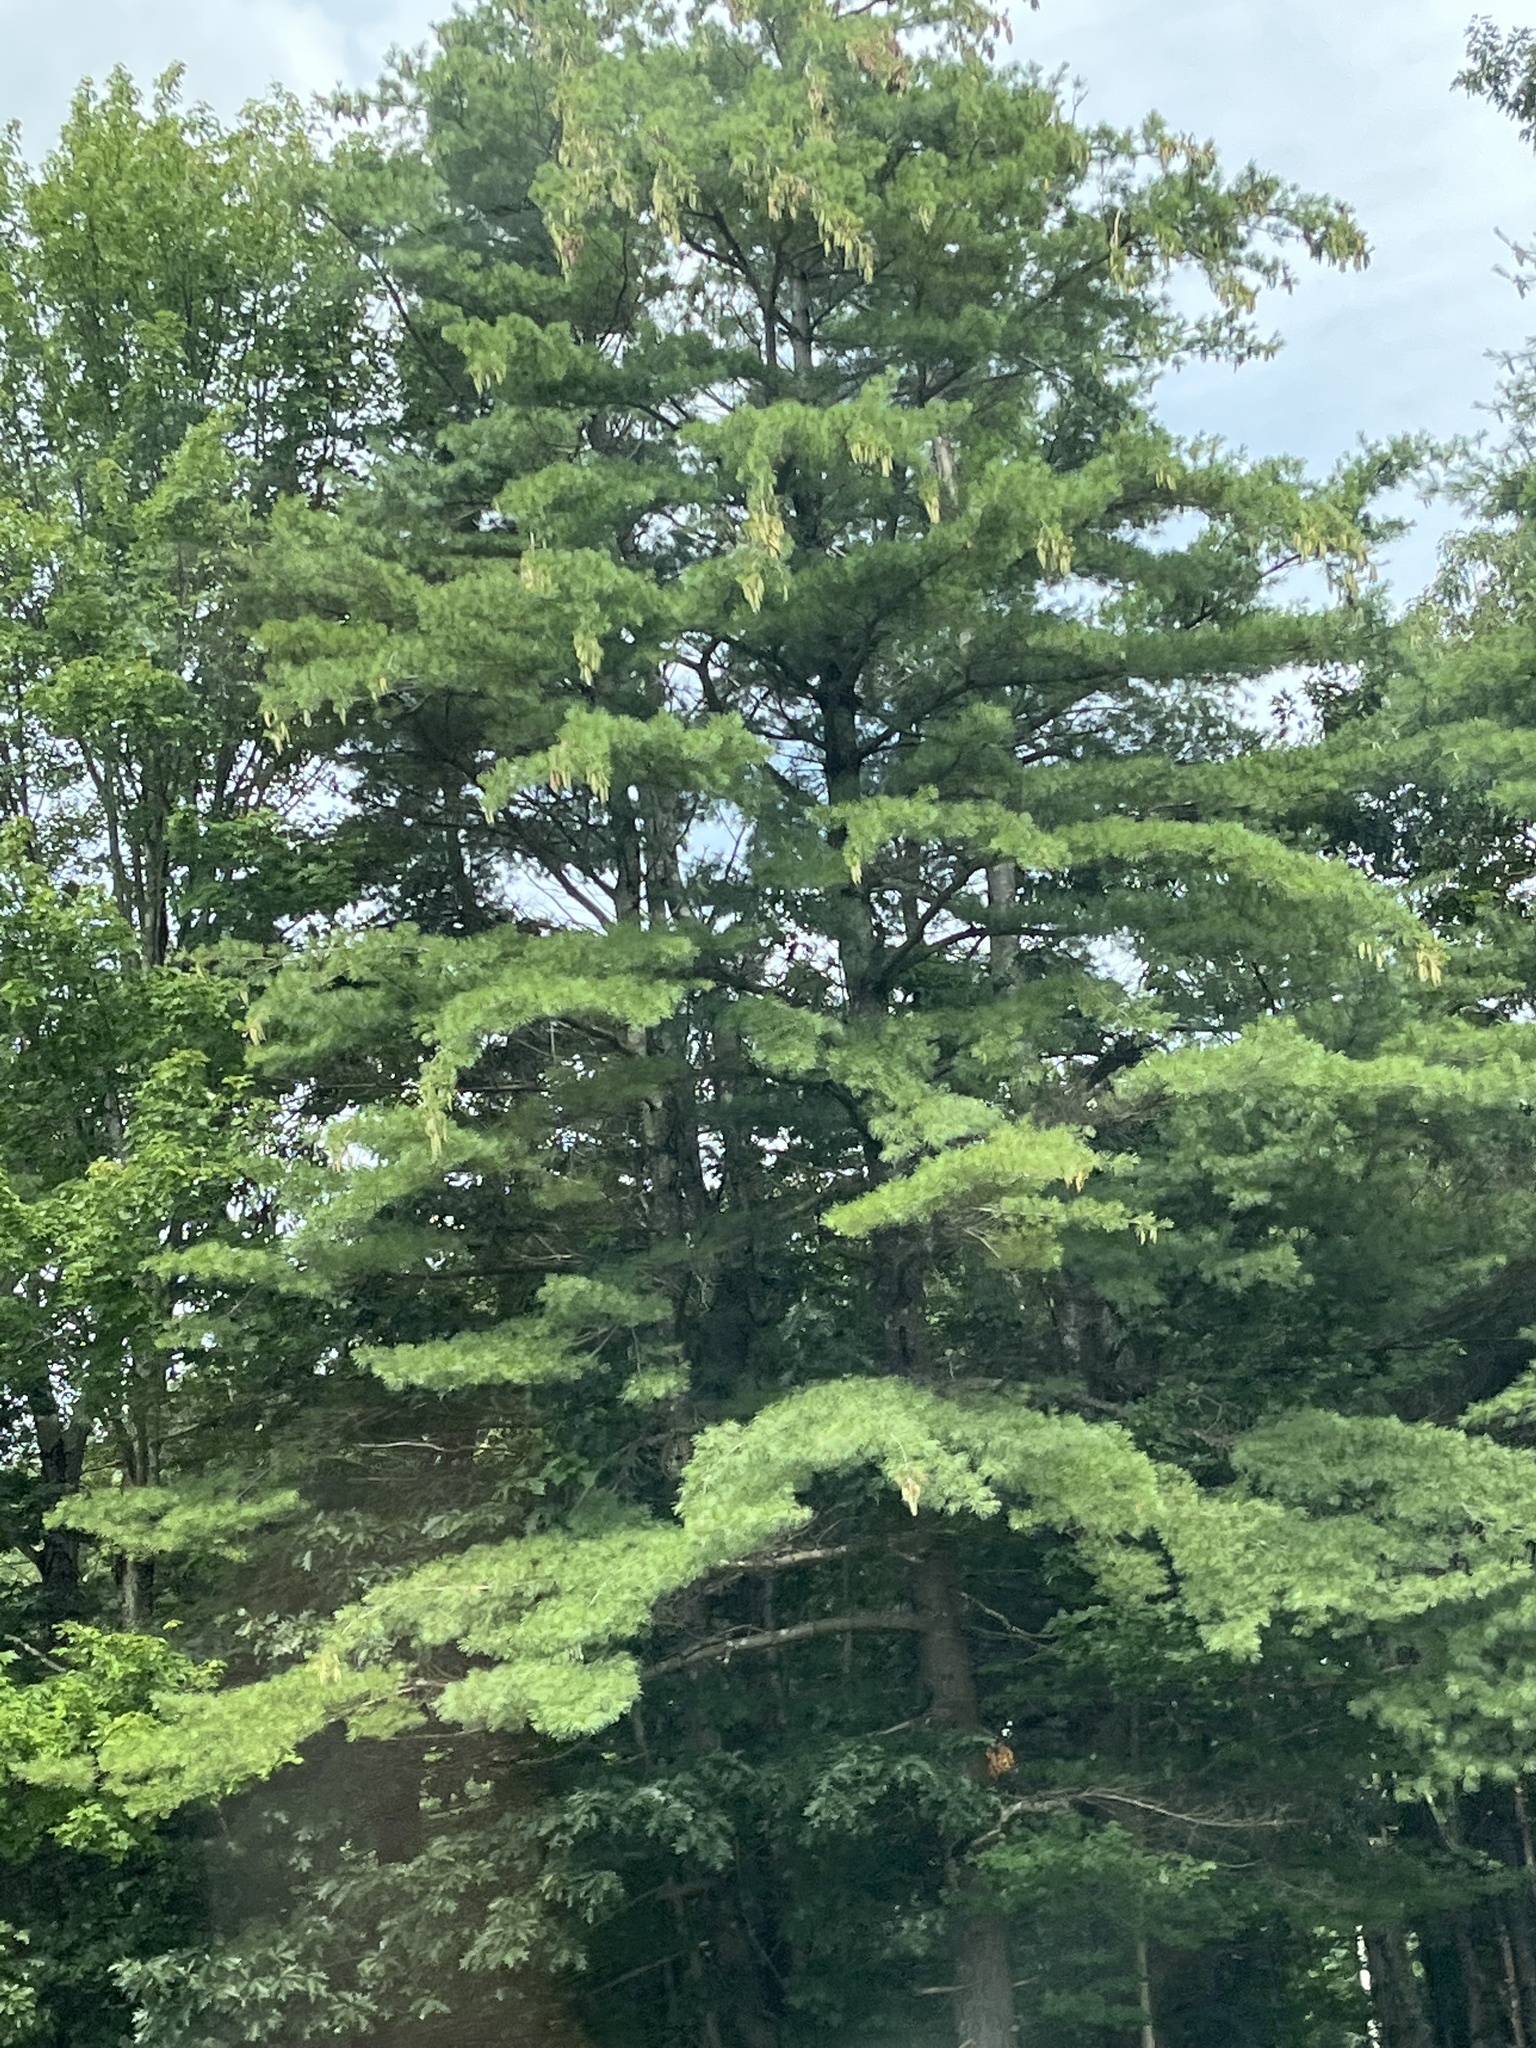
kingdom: Plantae
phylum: Tracheophyta
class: Pinopsida
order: Pinales
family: Pinaceae
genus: Pinus
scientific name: Pinus strobus
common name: Weymouth pine
